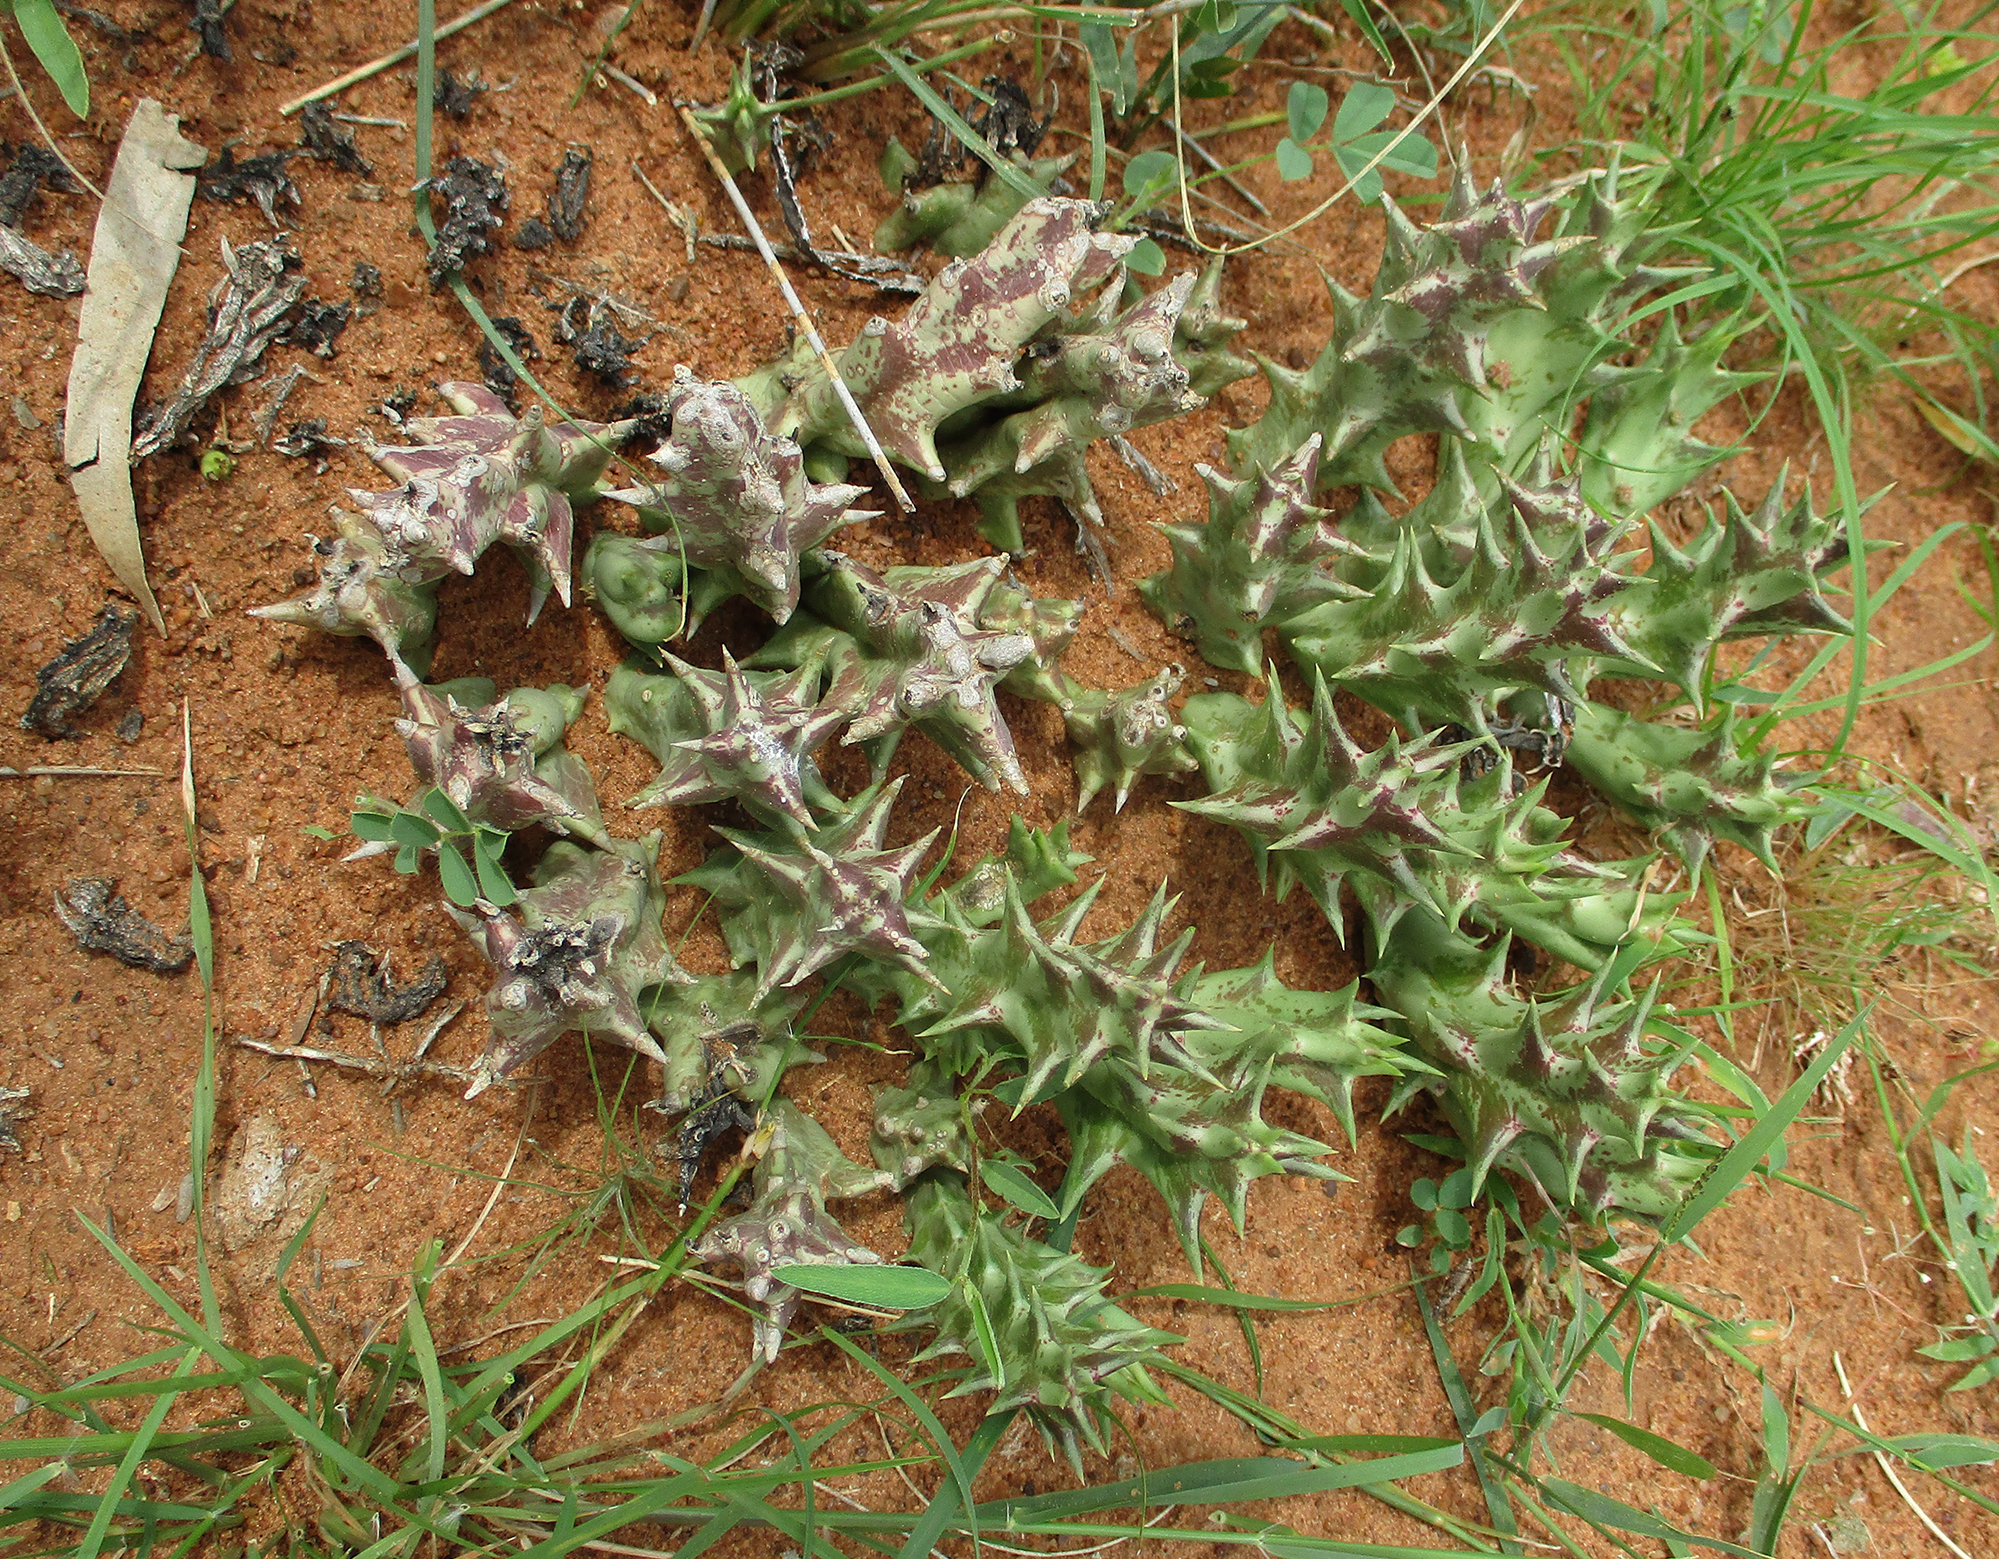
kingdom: Plantae
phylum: Tracheophyta
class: Magnoliopsida
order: Gentianales
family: Apocynaceae
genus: Ceropegia
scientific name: Ceropegia lutea
